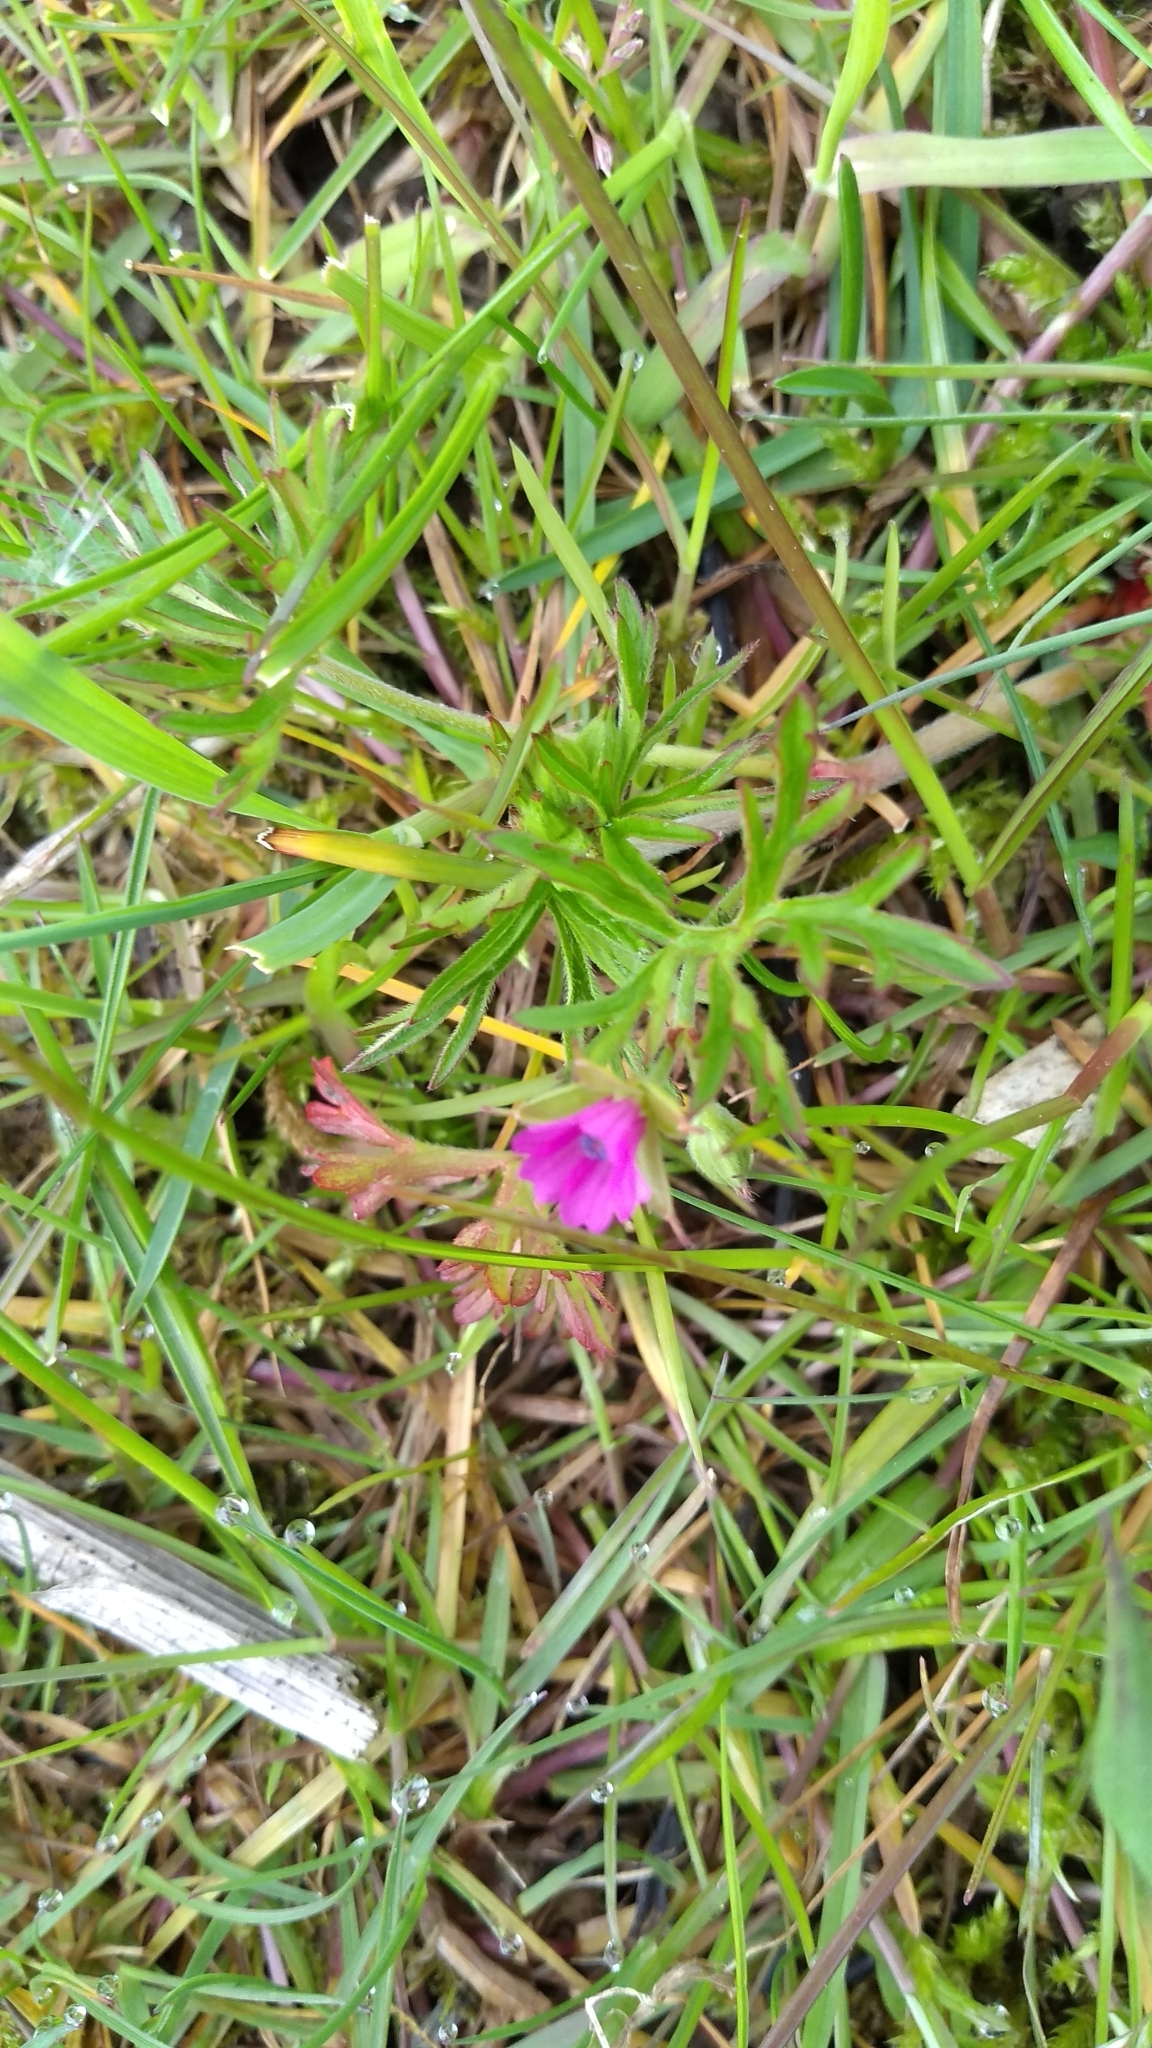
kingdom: Plantae
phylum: Tracheophyta
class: Magnoliopsida
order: Geraniales
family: Geraniaceae
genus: Geranium
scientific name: Geranium dissectum
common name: Cut-leaved crane's-bill
